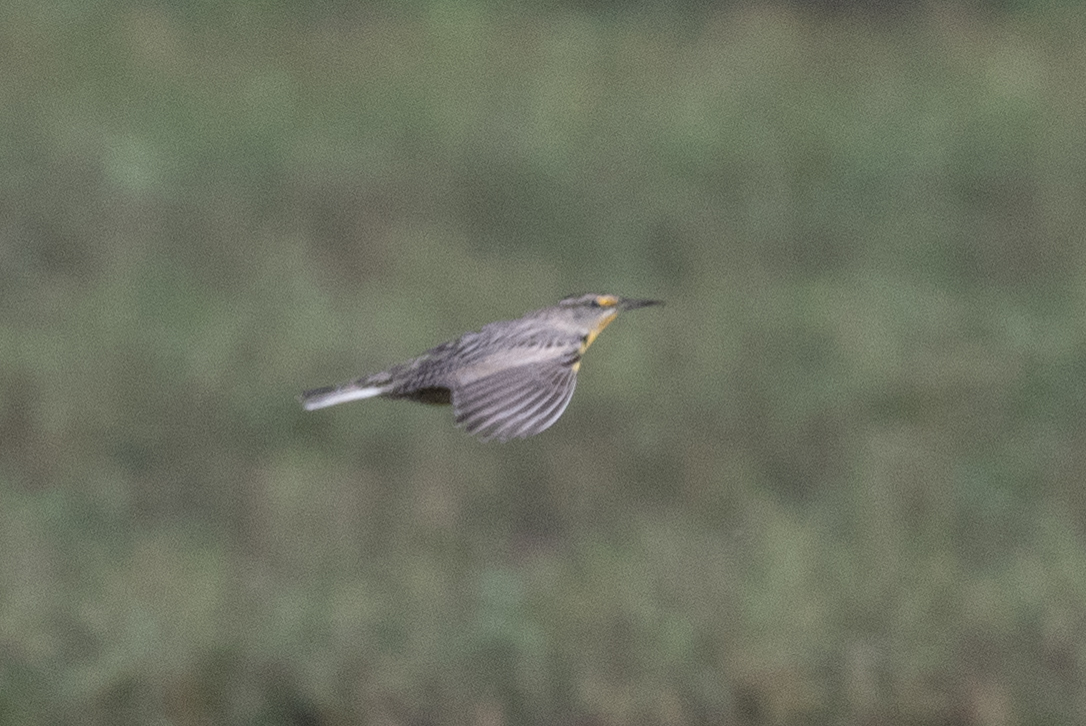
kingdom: Animalia
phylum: Chordata
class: Aves
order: Passeriformes
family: Icteridae
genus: Sturnella
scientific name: Sturnella neglecta
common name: Western meadowlark
